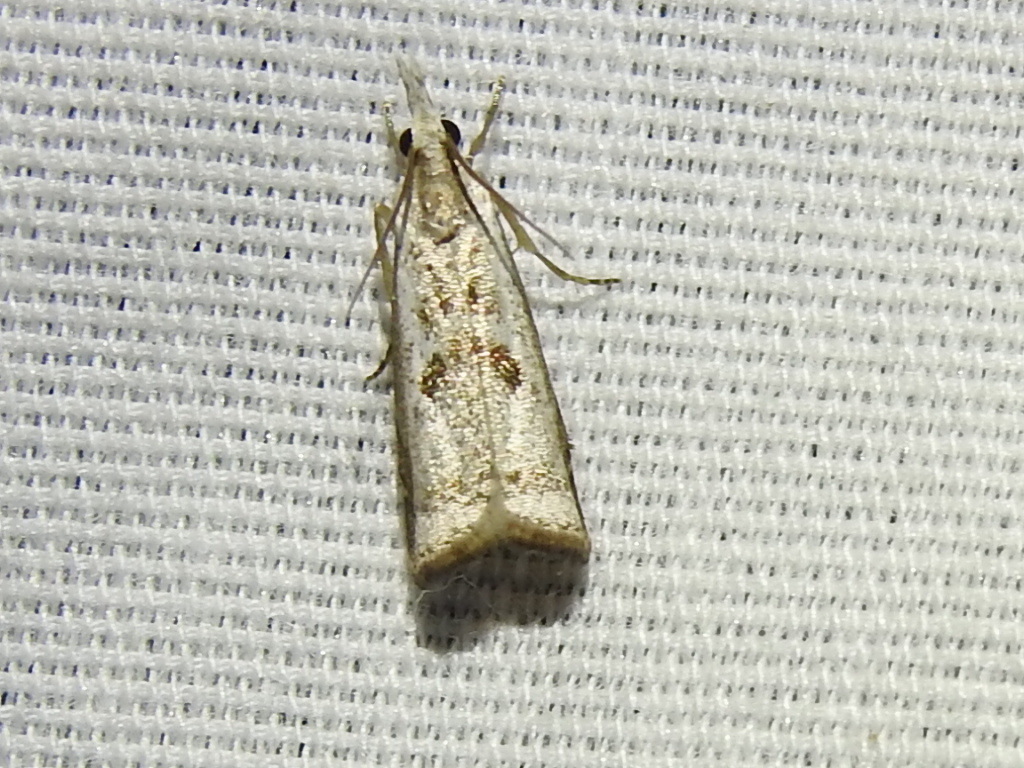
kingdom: Animalia
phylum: Arthropoda
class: Insecta
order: Lepidoptera
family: Crambidae
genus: Microcrambus
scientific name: Microcrambus croesus
